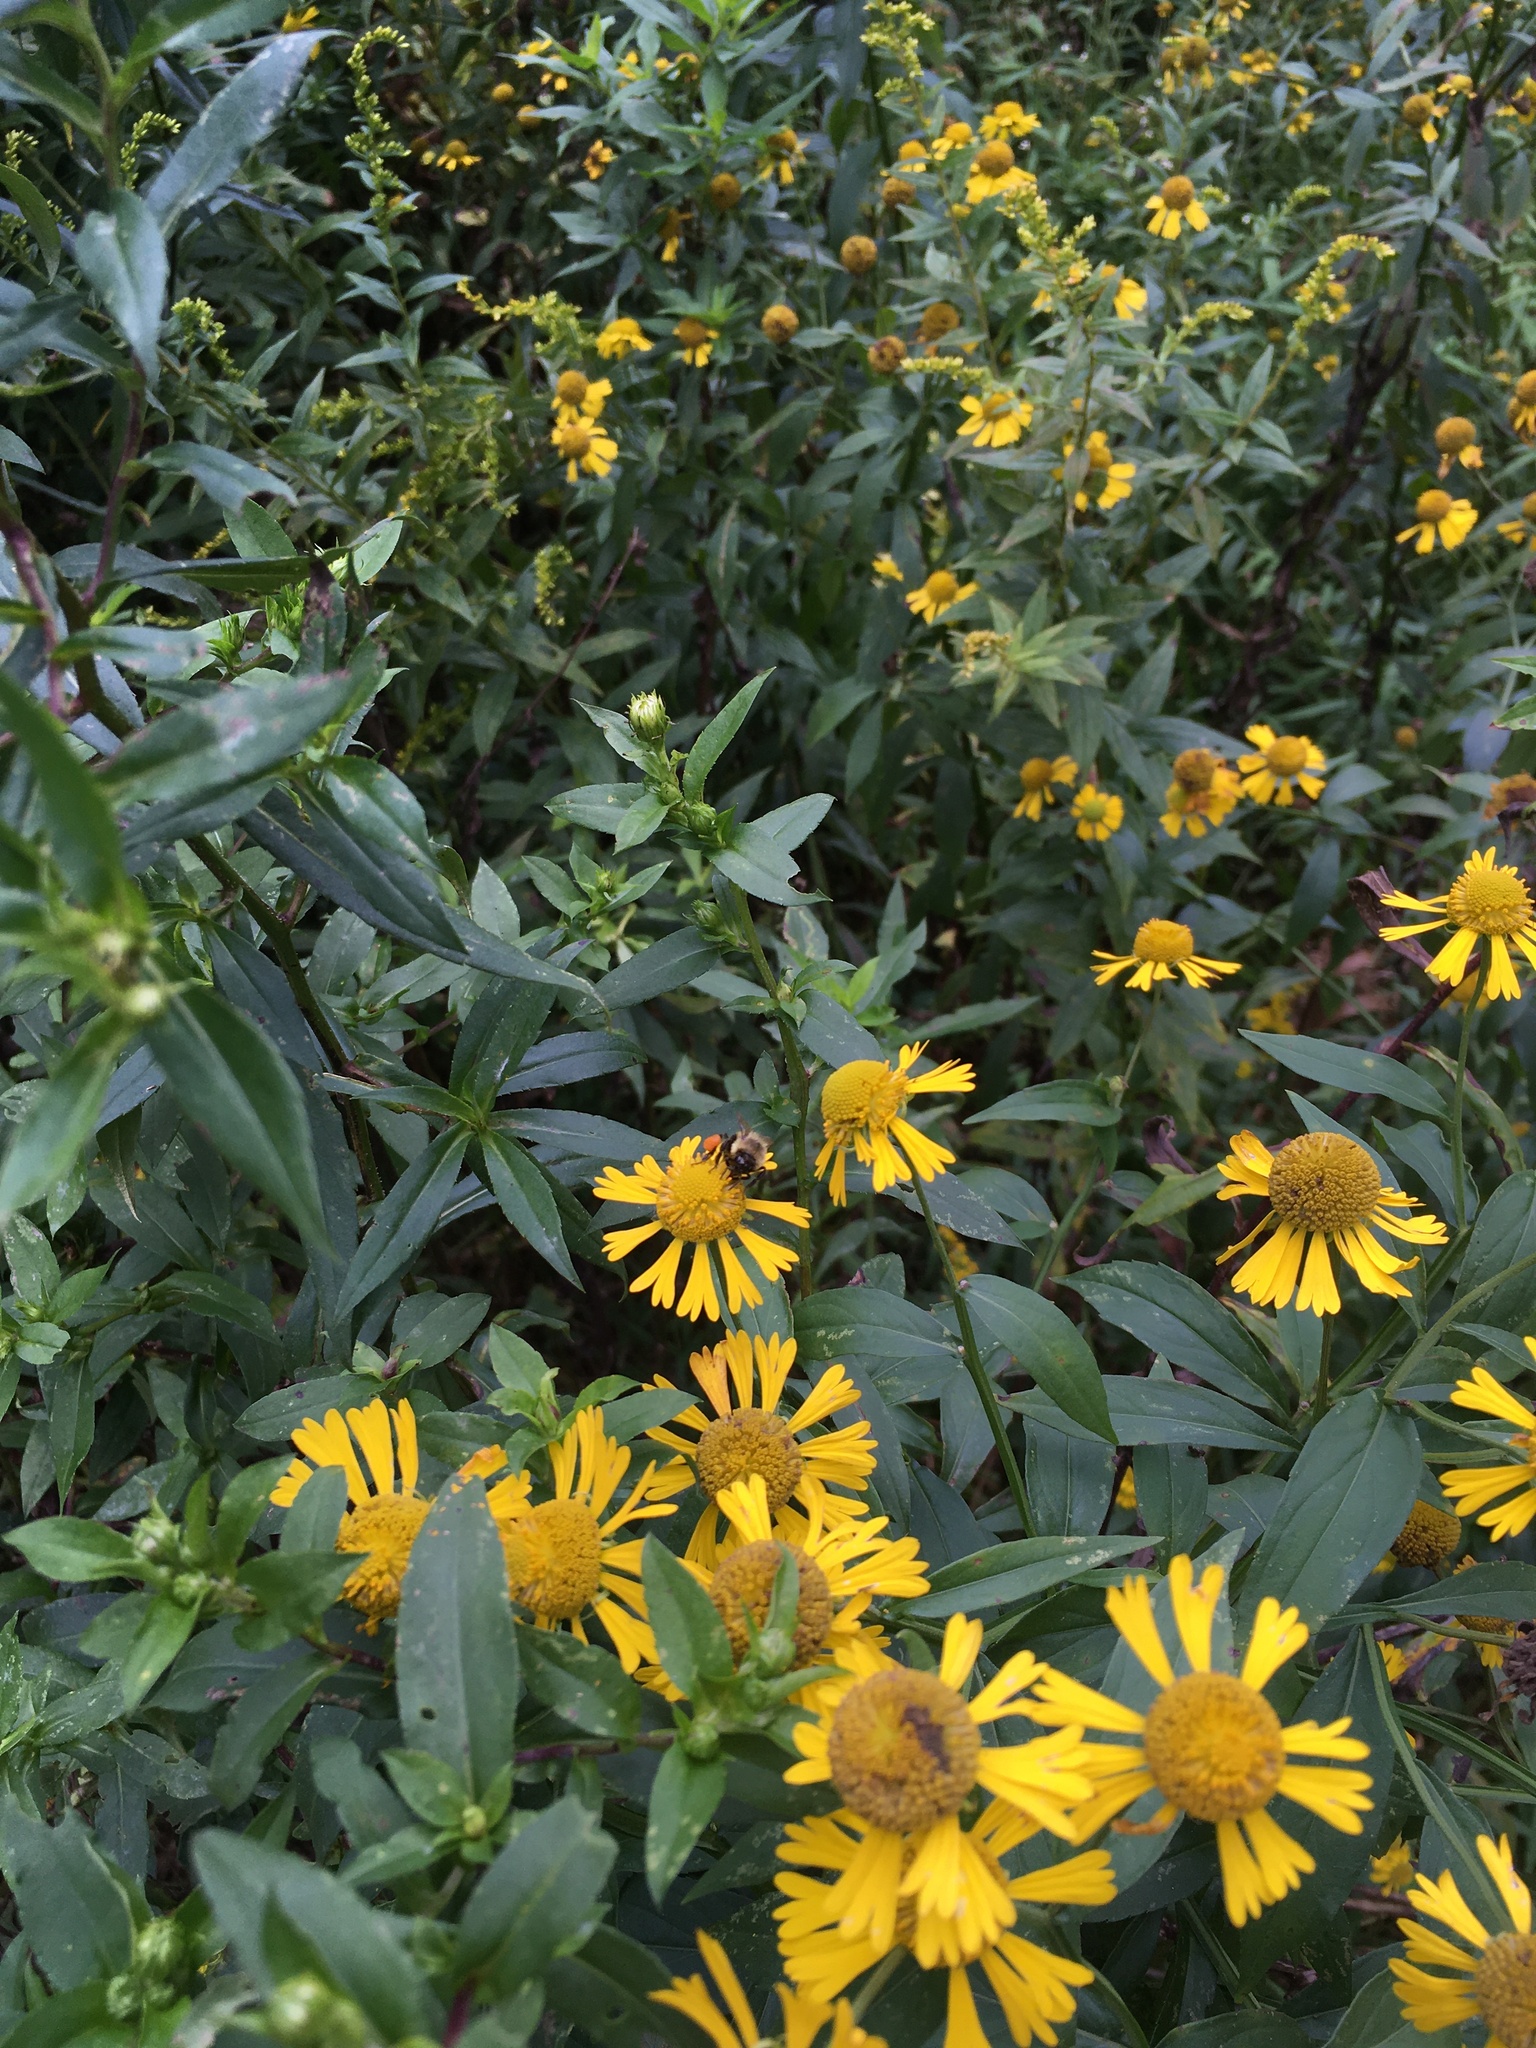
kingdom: Plantae
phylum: Tracheophyta
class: Magnoliopsida
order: Asterales
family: Asteraceae
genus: Helenium
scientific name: Helenium autumnale
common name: Sneezeweed
